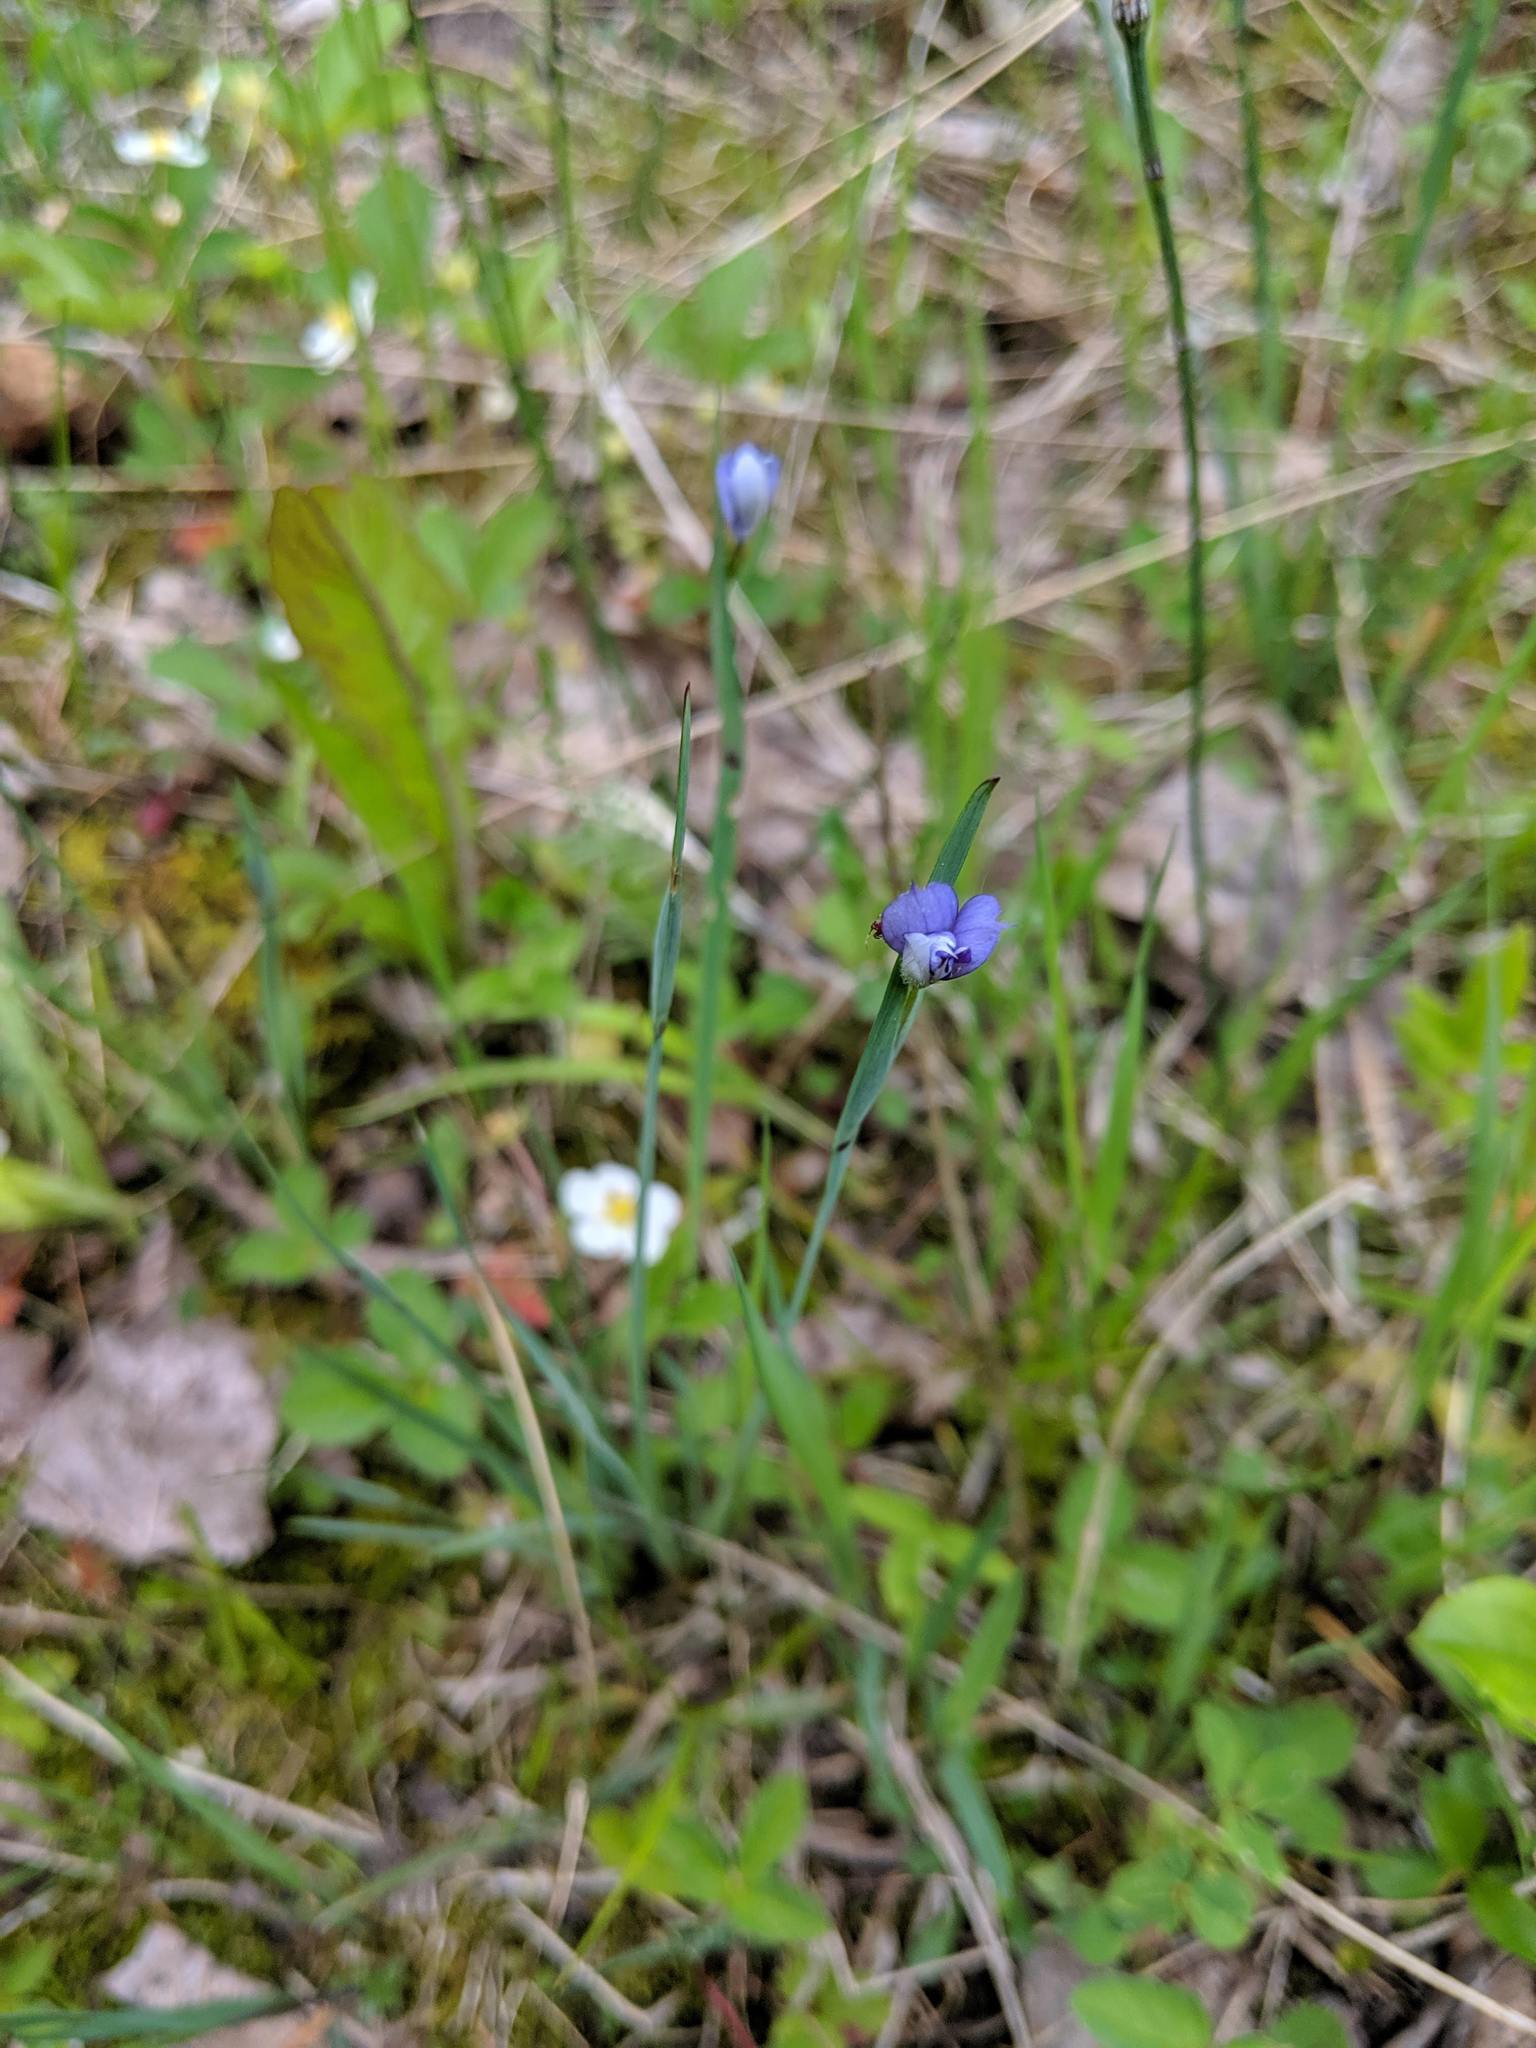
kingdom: Plantae
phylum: Tracheophyta
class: Liliopsida
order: Asparagales
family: Iridaceae
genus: Sisyrinchium
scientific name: Sisyrinchium montanum
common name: American blue-eyed-grass
